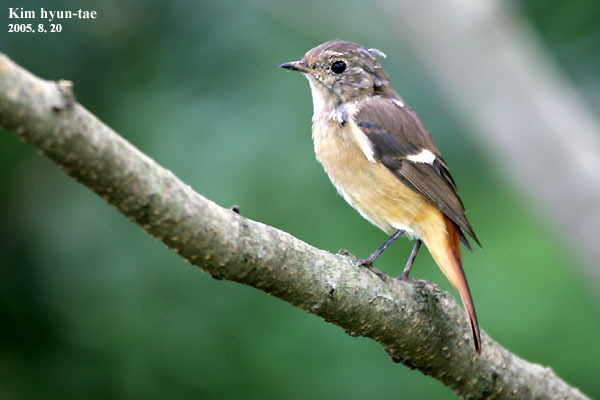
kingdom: Animalia
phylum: Chordata
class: Aves
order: Passeriformes
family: Muscicapidae
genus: Phoenicurus
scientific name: Phoenicurus auroreus
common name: Daurian redstart
